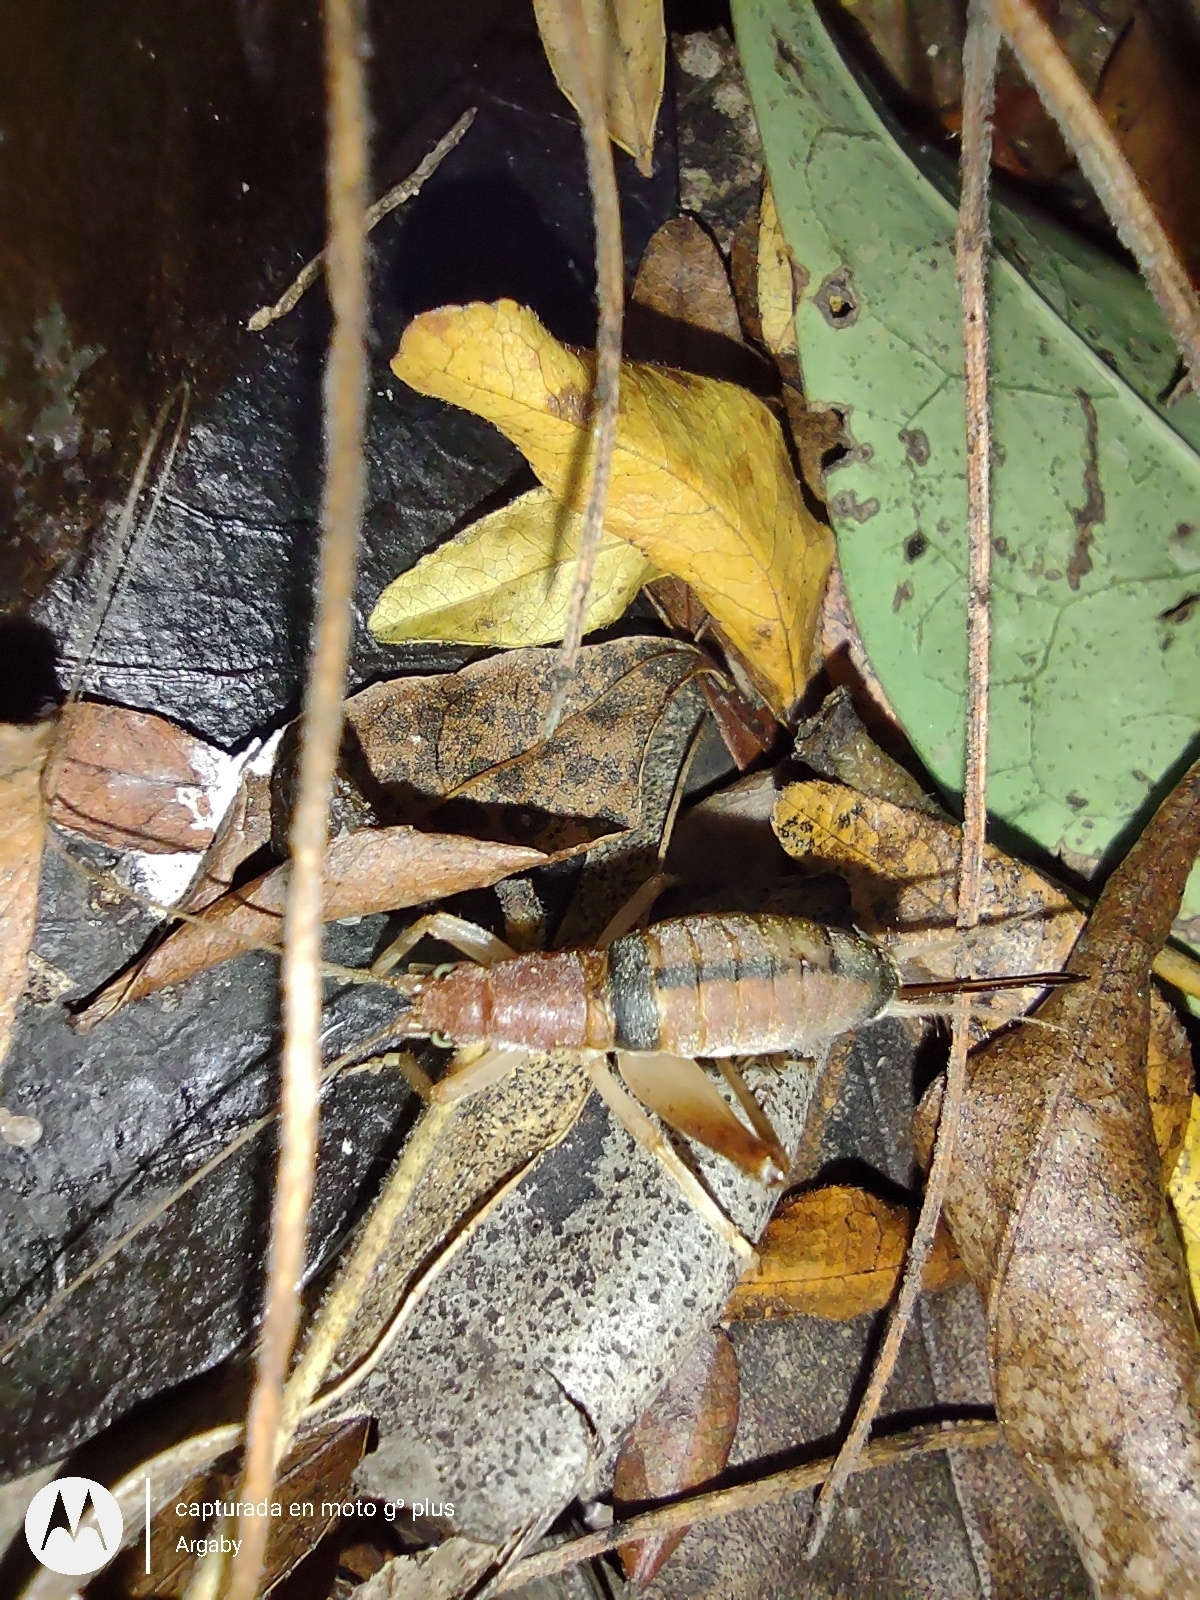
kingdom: Animalia
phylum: Arthropoda
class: Insecta
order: Orthoptera
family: Gryllidae
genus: Neometrypus
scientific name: Neometrypus aculeatus
